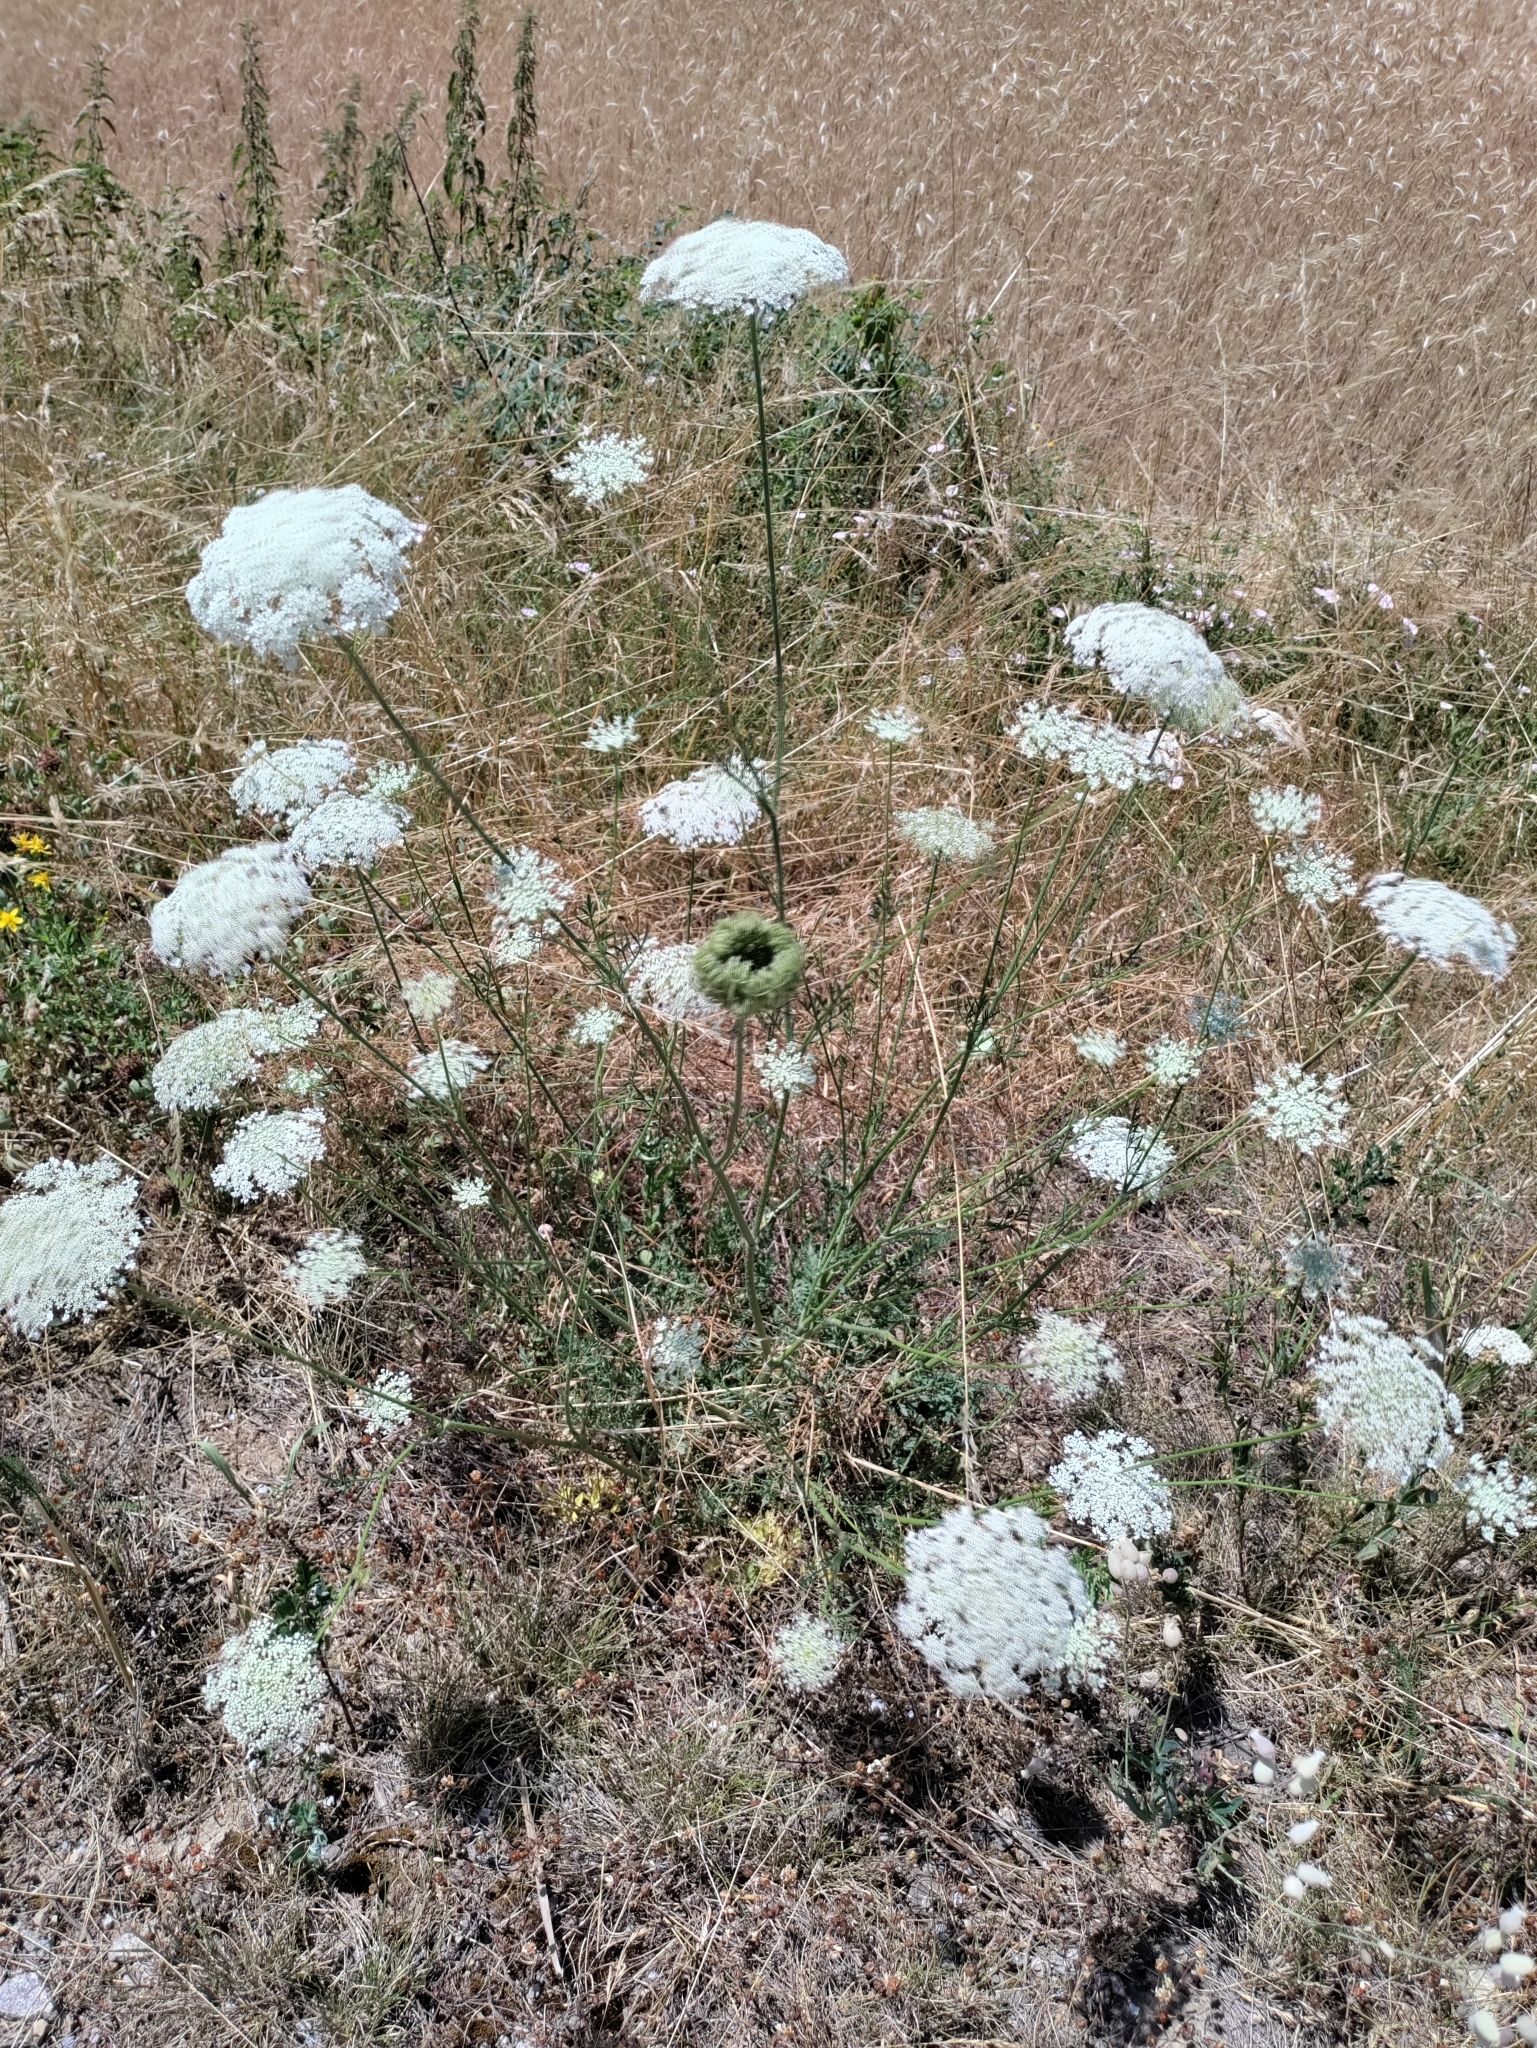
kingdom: Plantae
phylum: Tracheophyta
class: Magnoliopsida
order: Apiales
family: Apiaceae
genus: Daucus
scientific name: Daucus carota
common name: Wild carrot
